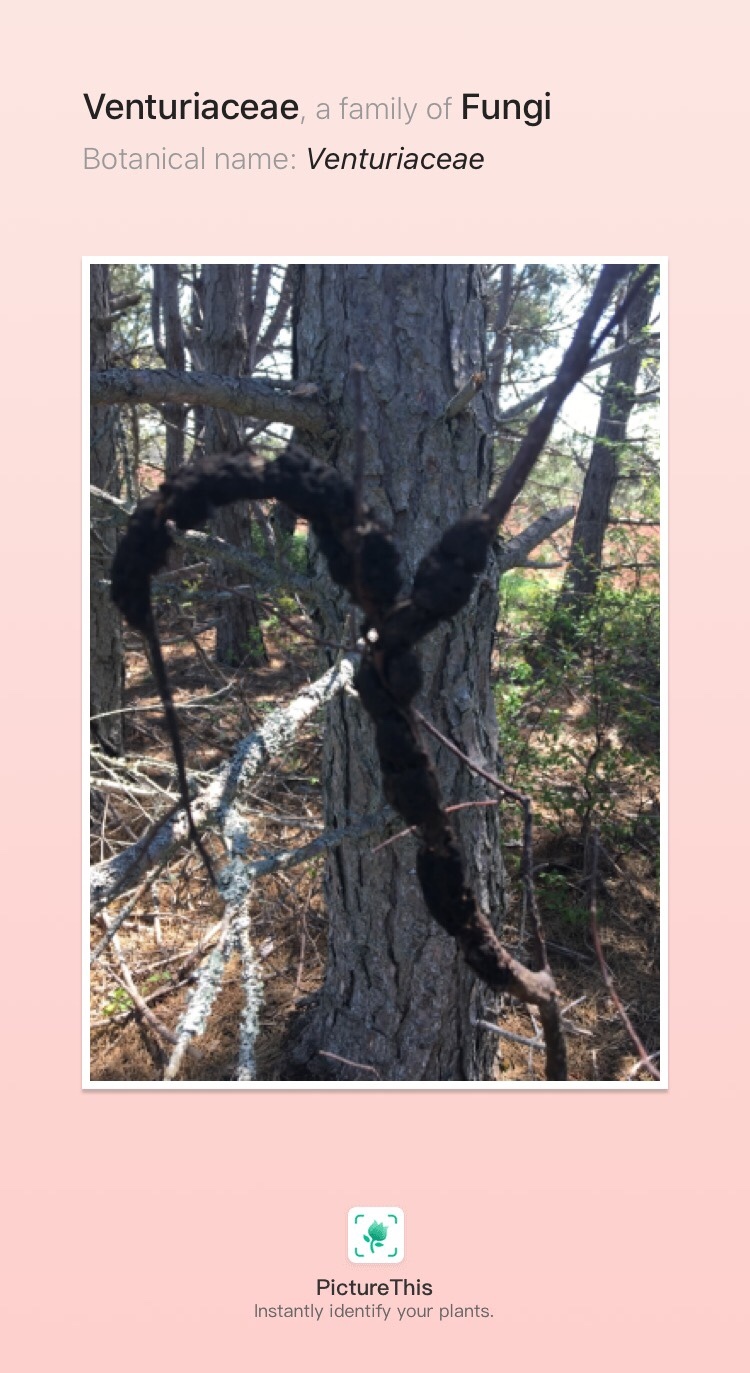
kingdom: Fungi
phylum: Ascomycota
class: Dothideomycetes
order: Venturiales
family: Venturiaceae
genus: Apiosporina
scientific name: Apiosporina morbosa
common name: Black knot
